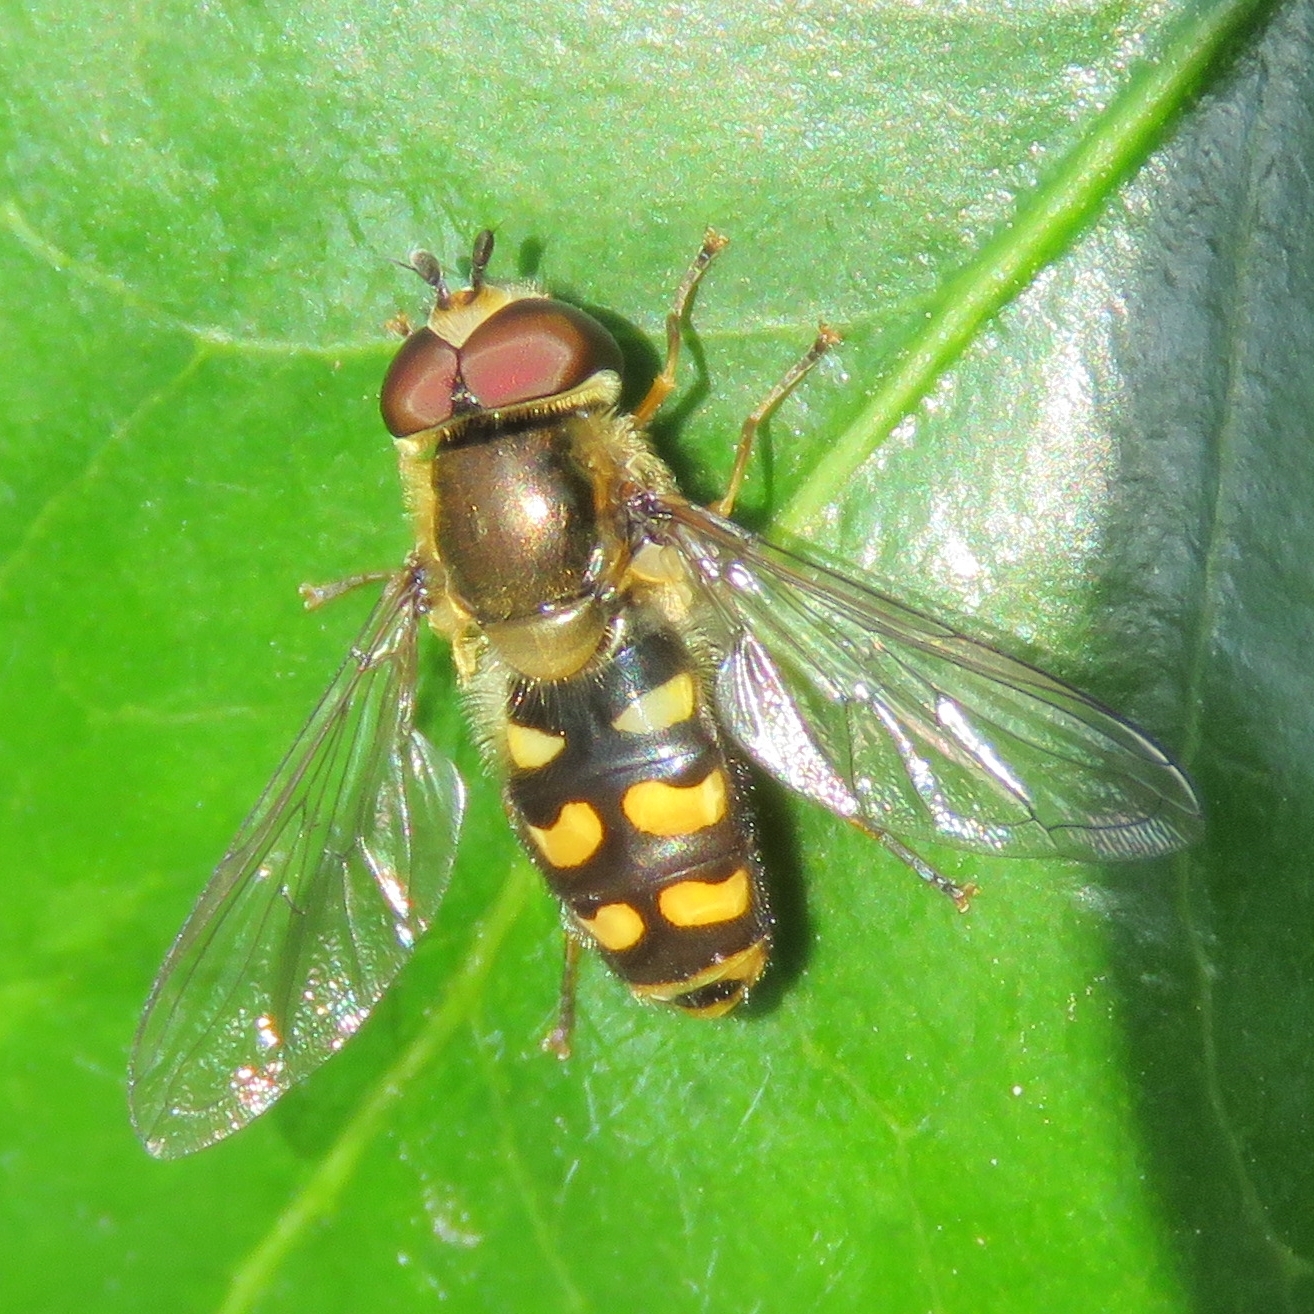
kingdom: Animalia
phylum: Arthropoda
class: Insecta
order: Diptera
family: Syrphidae
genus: Eupeodes
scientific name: Eupeodes
